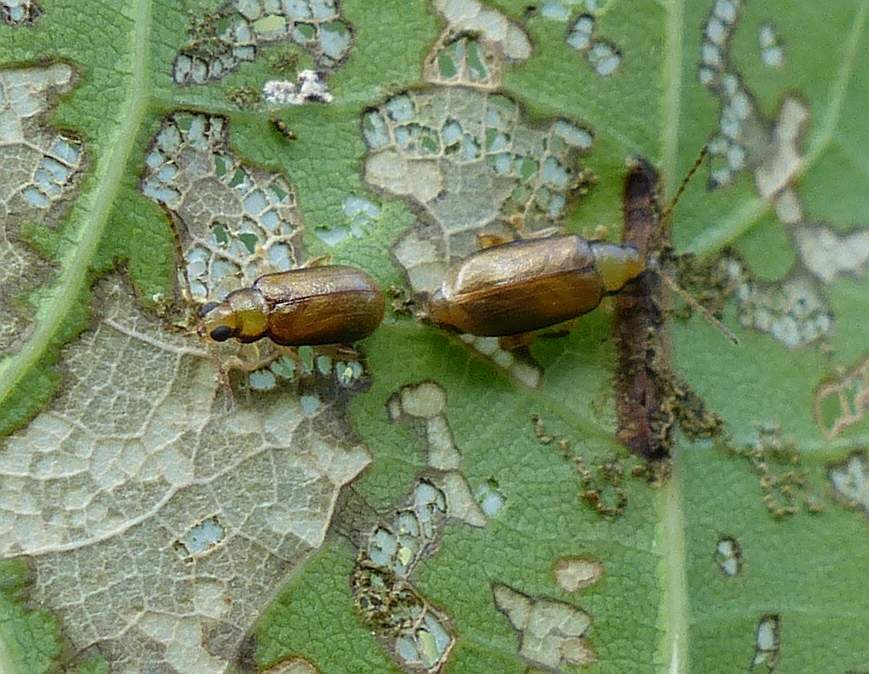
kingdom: Animalia
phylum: Arthropoda
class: Insecta
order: Coleoptera
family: Chrysomelidae
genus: Systena
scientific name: Systena marginalis
